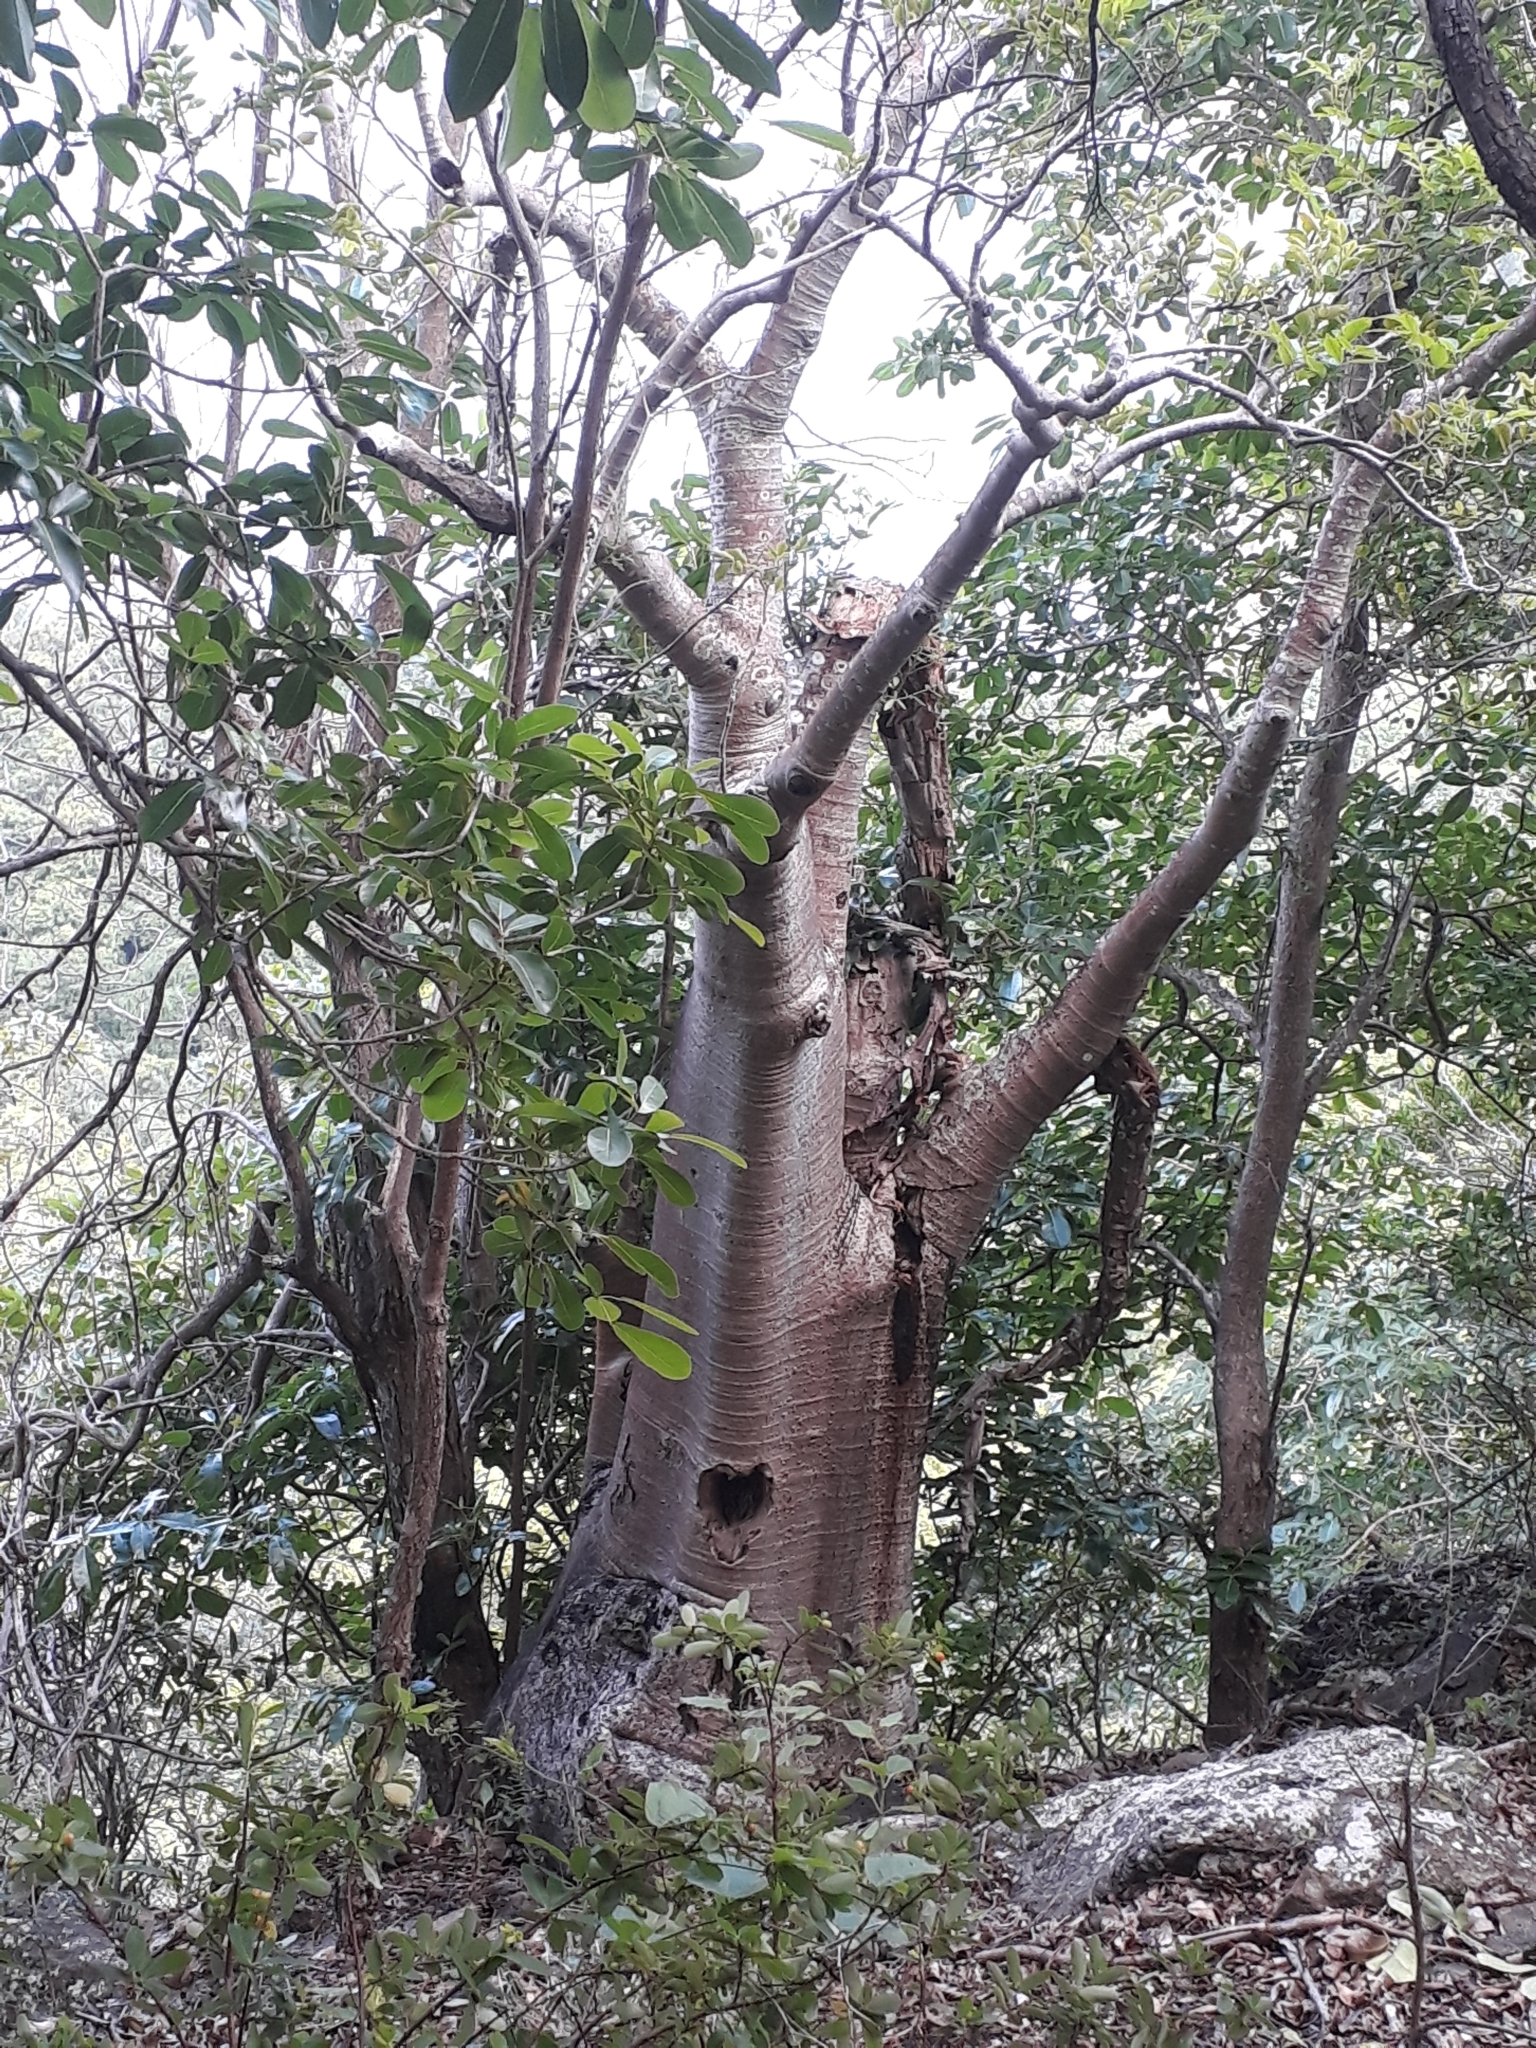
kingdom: Plantae
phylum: Tracheophyta
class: Magnoliopsida
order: Vitales
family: Vitaceae
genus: Cyphostemma
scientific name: Cyphostemma mappia
